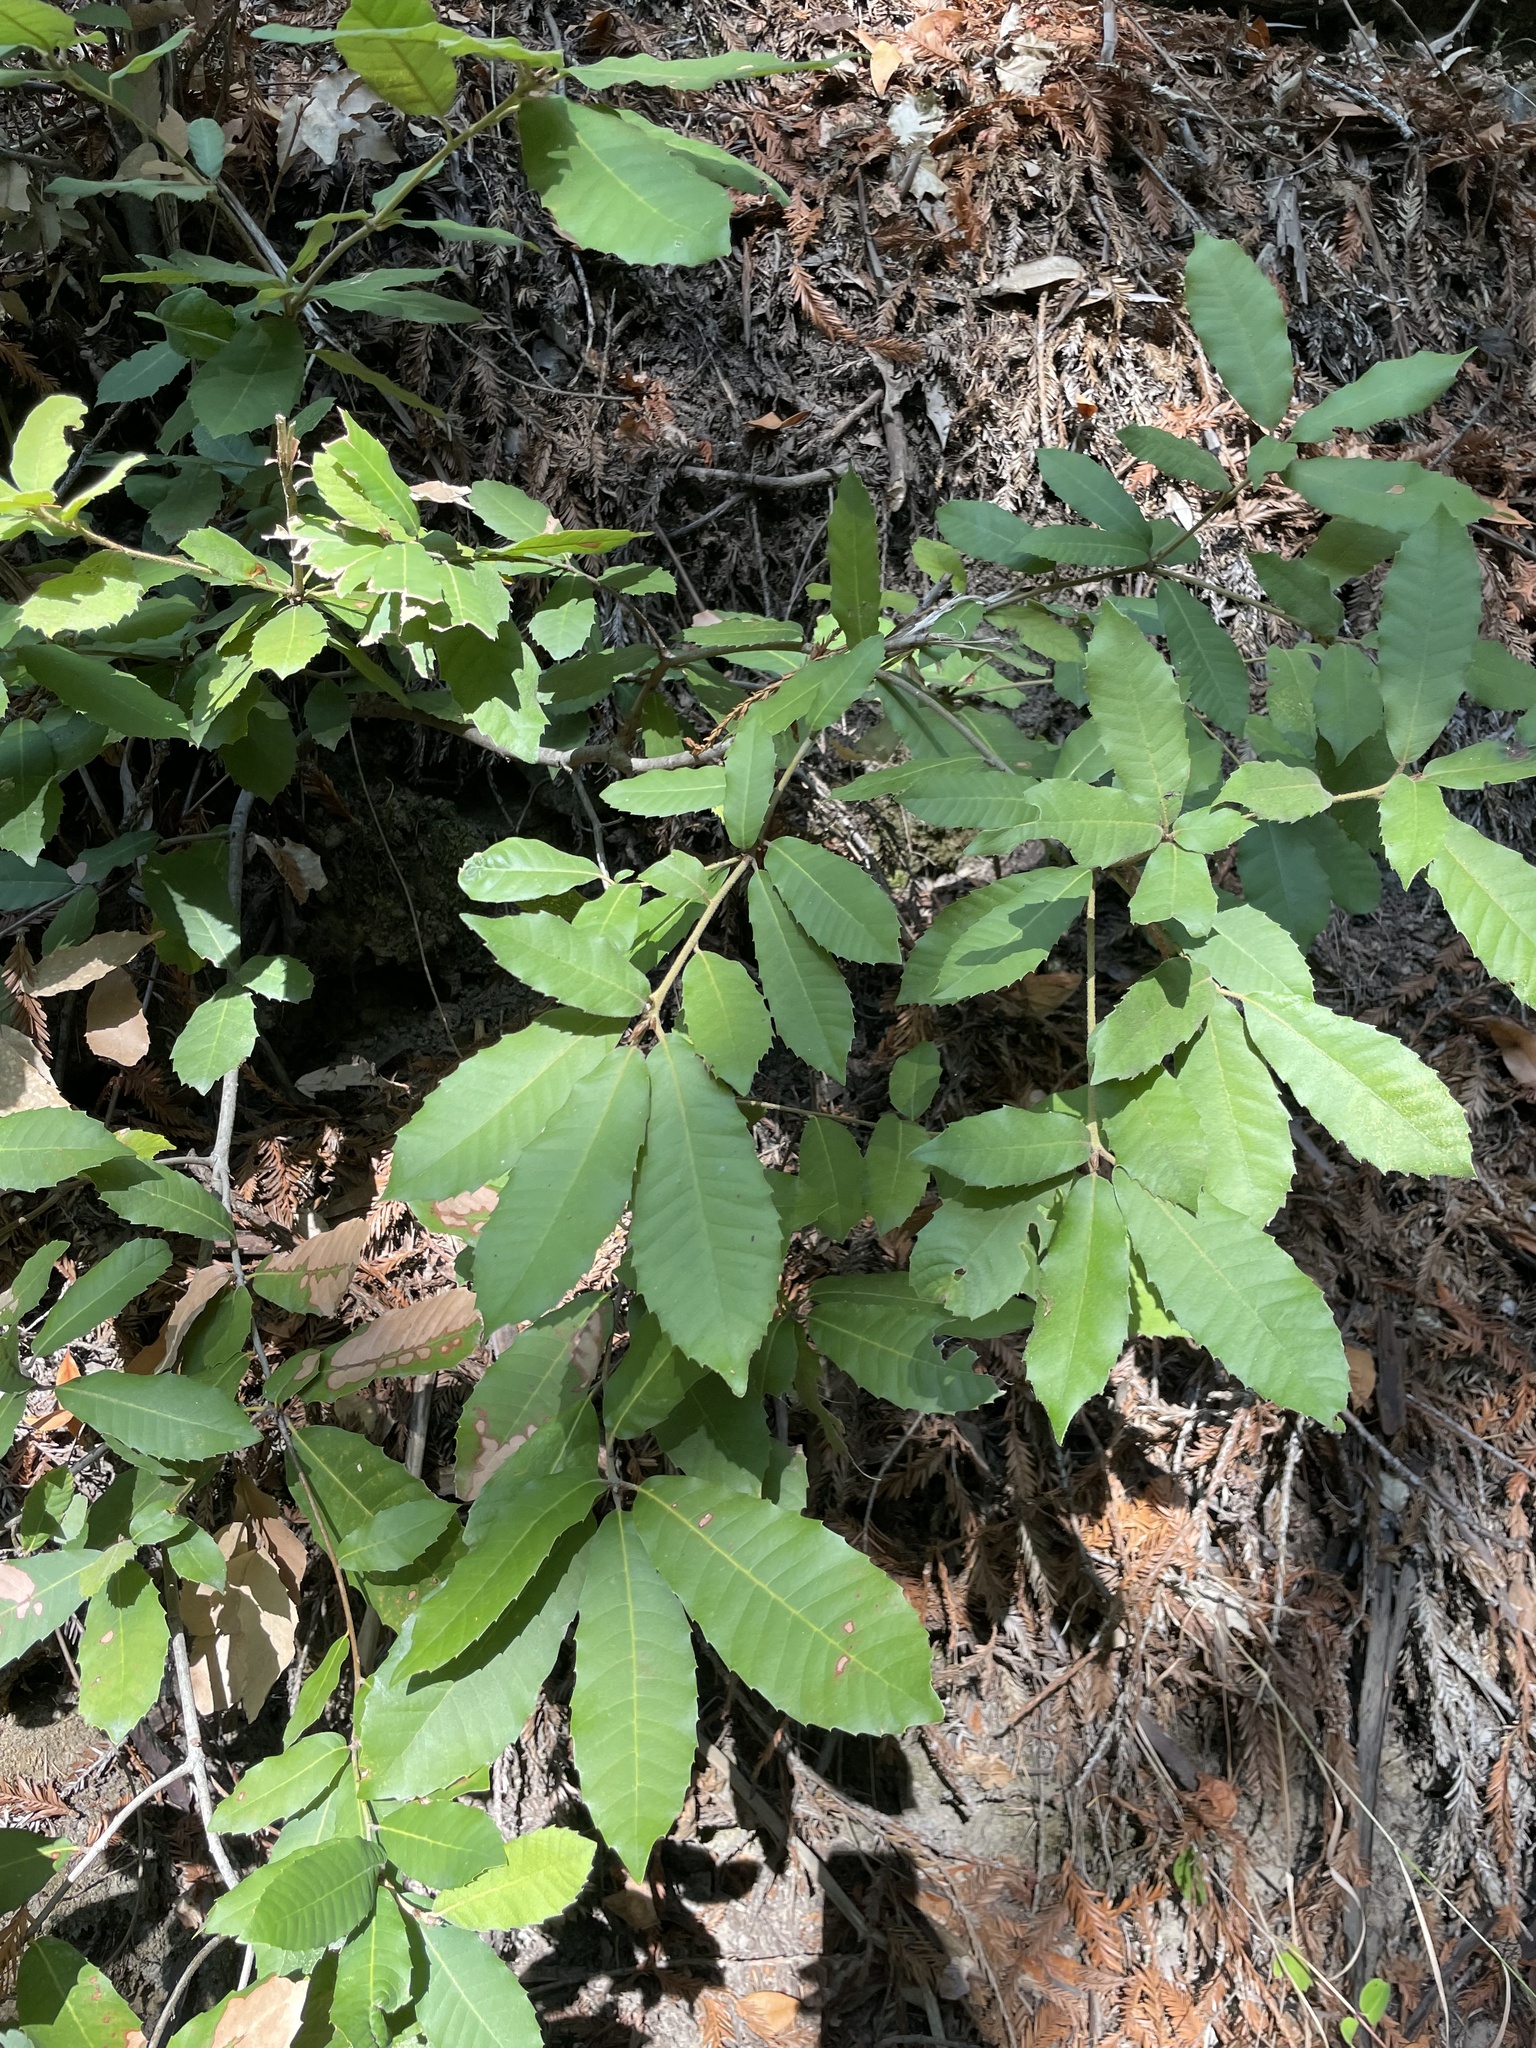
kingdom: Plantae
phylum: Tracheophyta
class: Magnoliopsida
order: Fagales
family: Fagaceae
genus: Notholithocarpus
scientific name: Notholithocarpus densiflorus
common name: Tan bark oak
